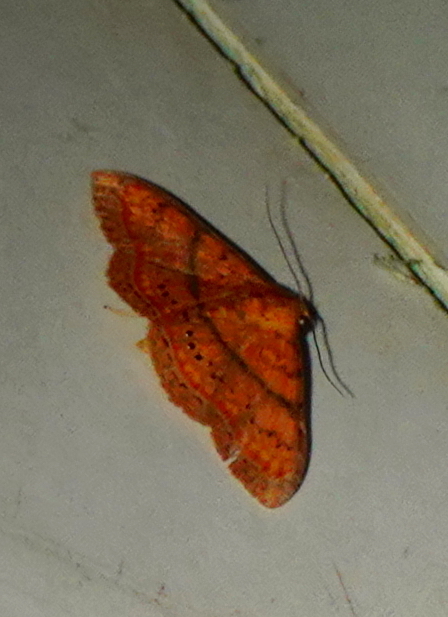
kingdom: Animalia
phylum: Arthropoda
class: Insecta
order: Lepidoptera
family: Erebidae
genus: Homodes
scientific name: Homodes vivida
